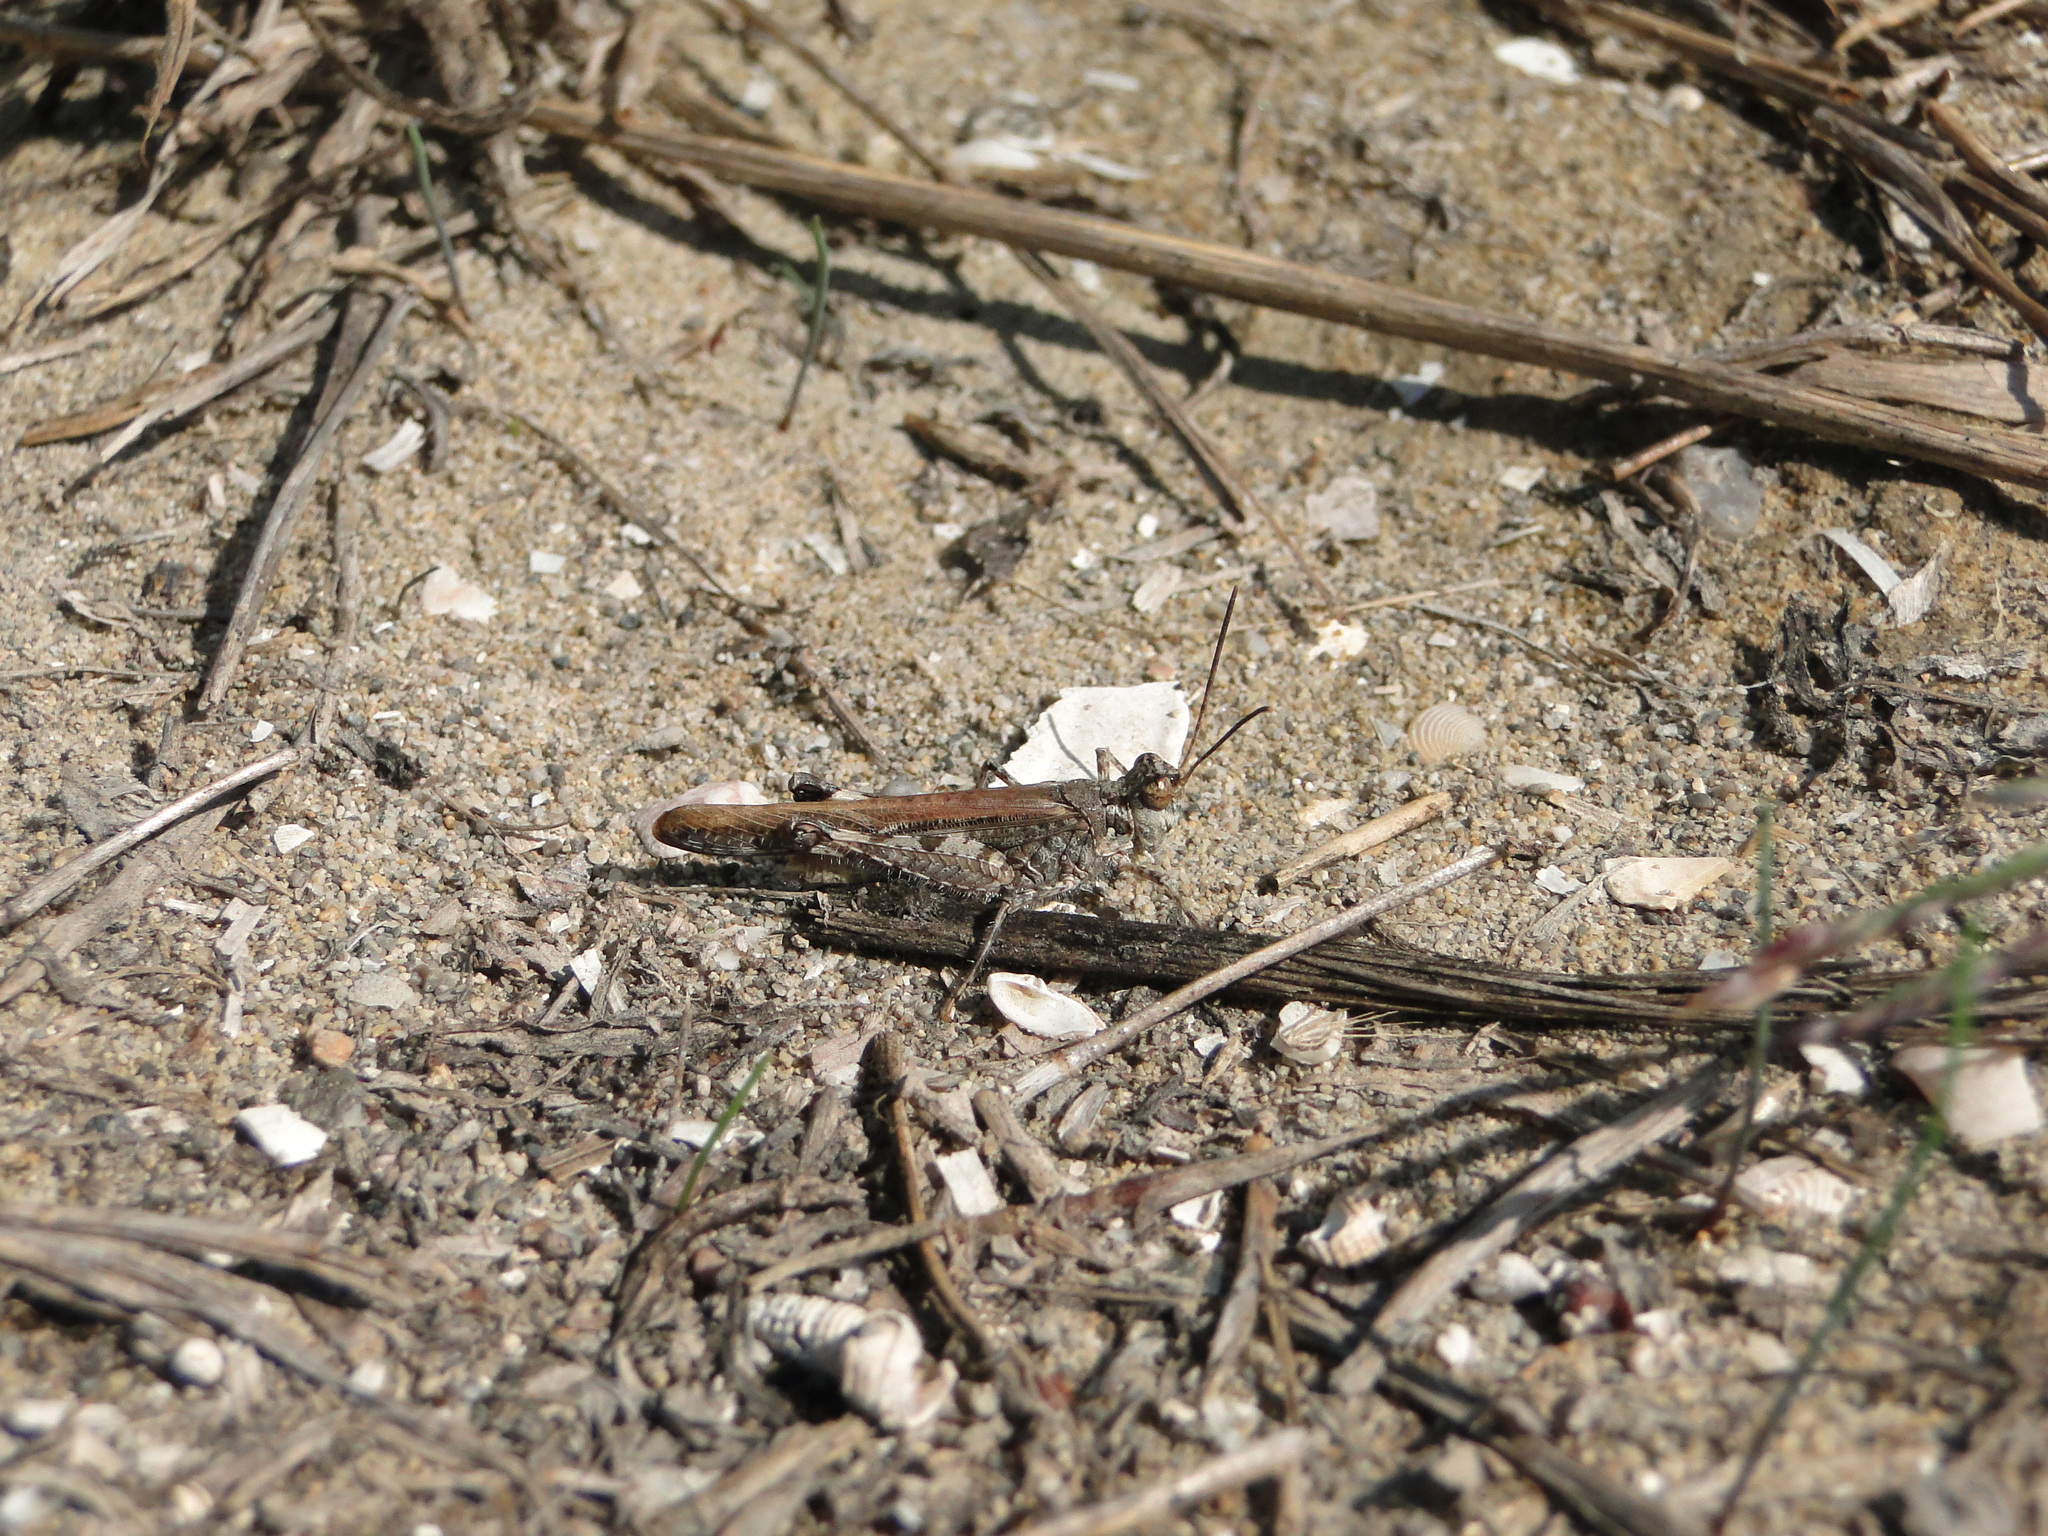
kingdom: Animalia
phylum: Arthropoda
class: Insecta
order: Orthoptera
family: Acrididae
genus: Acrotylus
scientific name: Acrotylus patruelis
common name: Slender burrowing grasshopper
